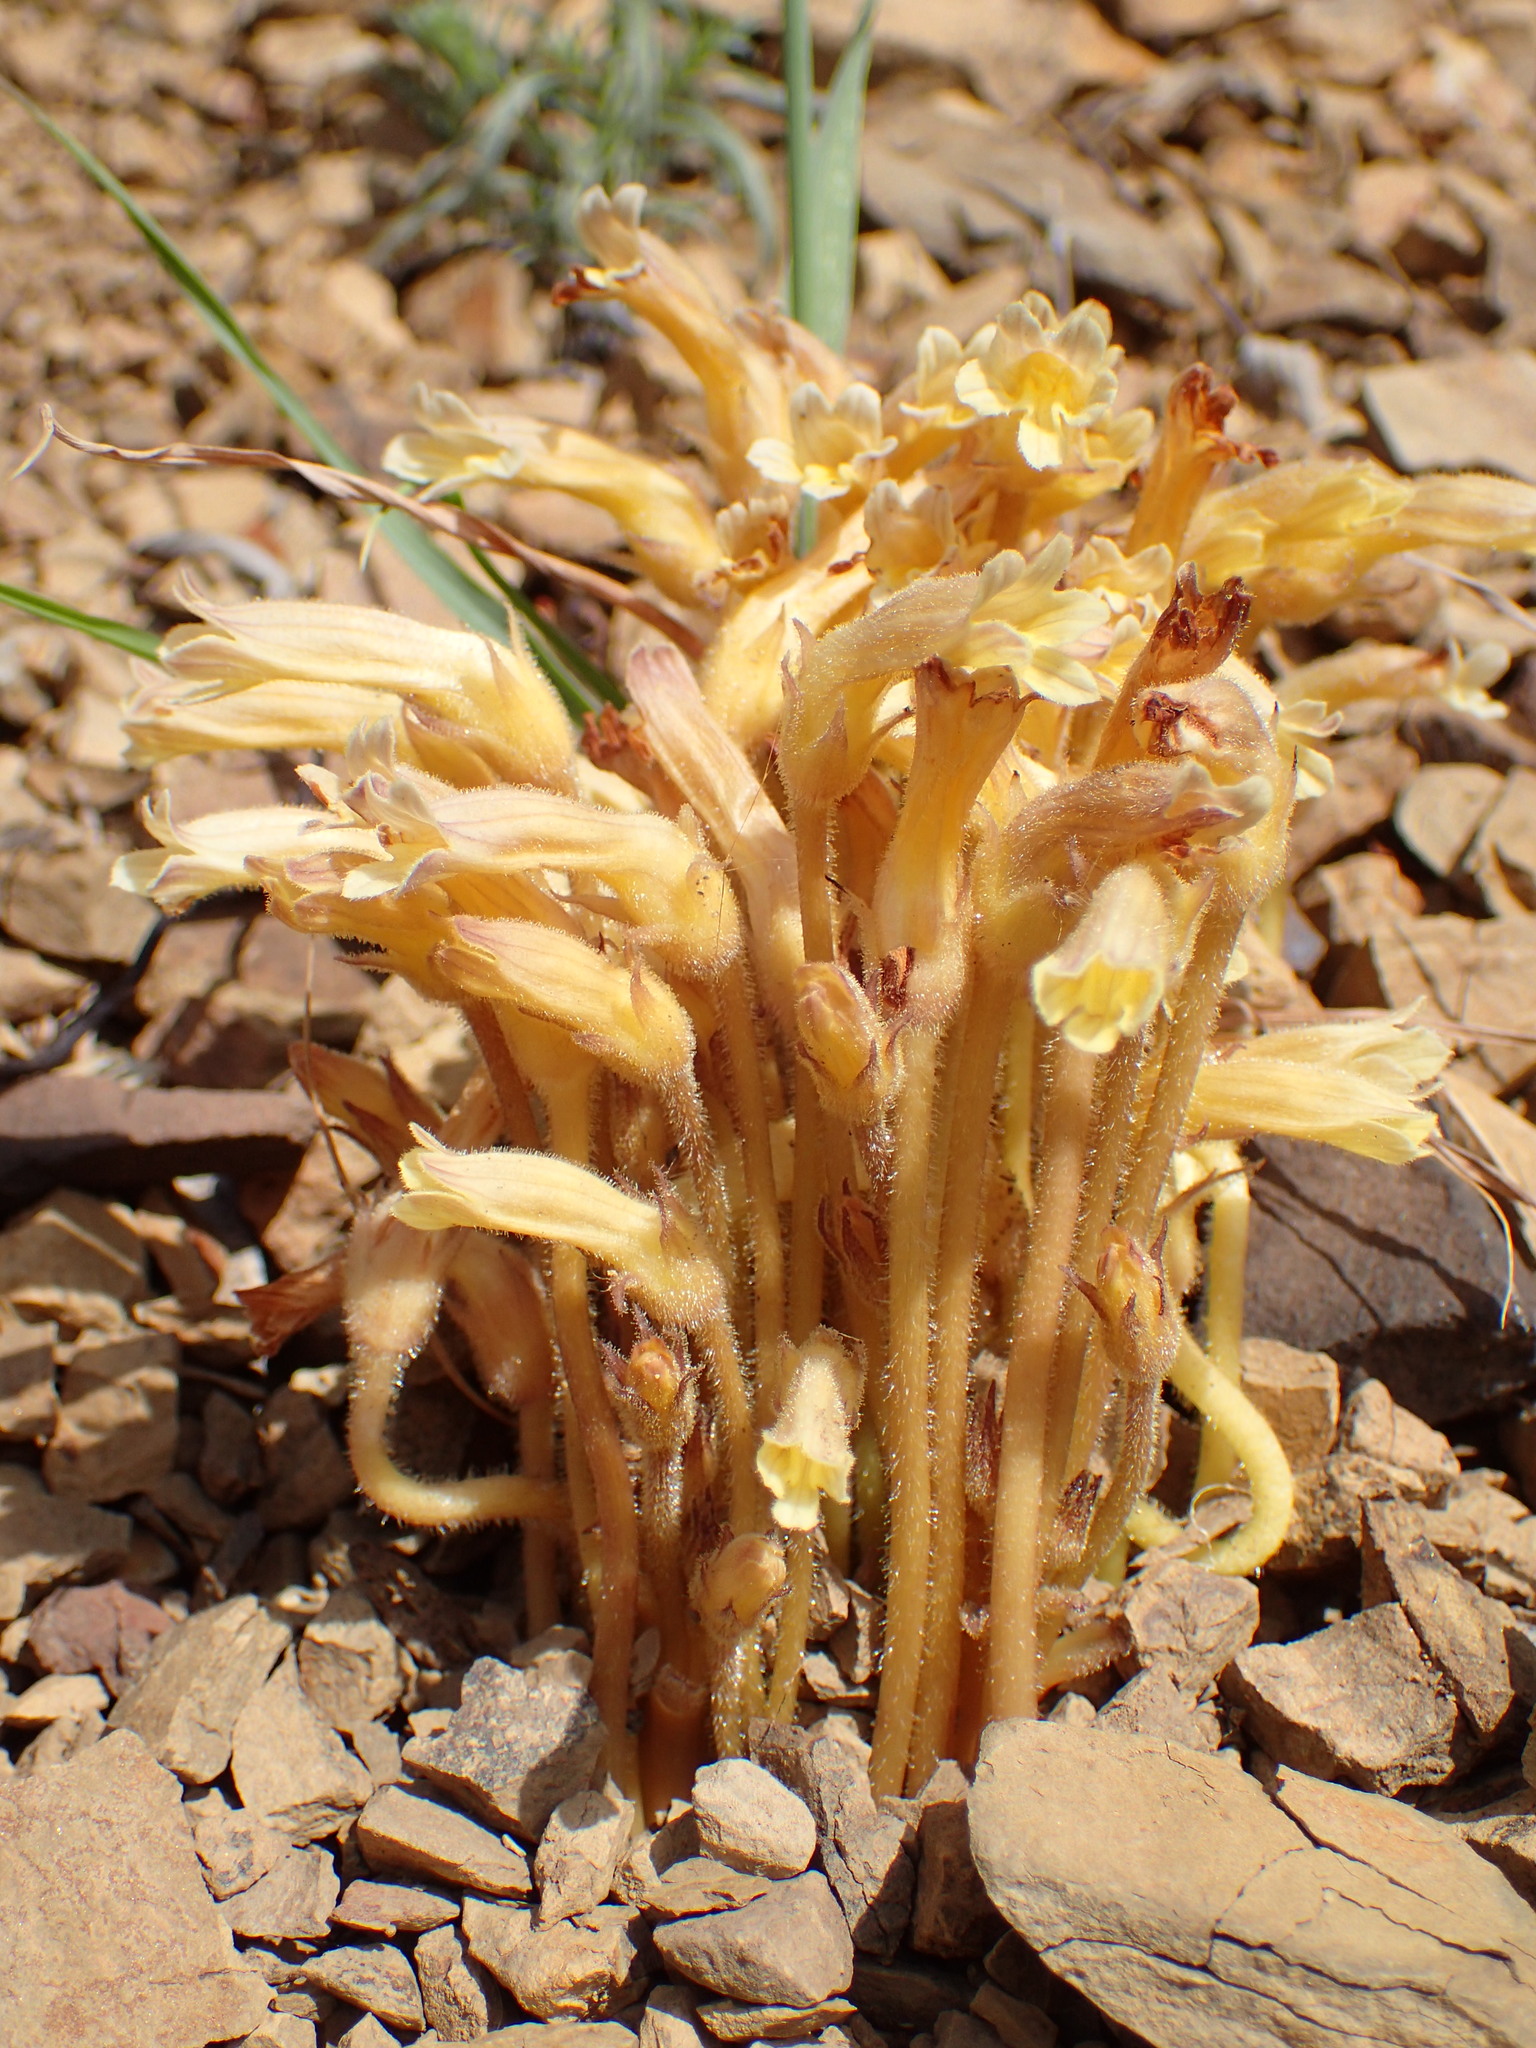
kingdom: Plantae
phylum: Tracheophyta
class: Magnoliopsida
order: Lamiales
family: Orobanchaceae
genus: Aphyllon
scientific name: Aphyllon franciscanum
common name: San francisco broomrape
